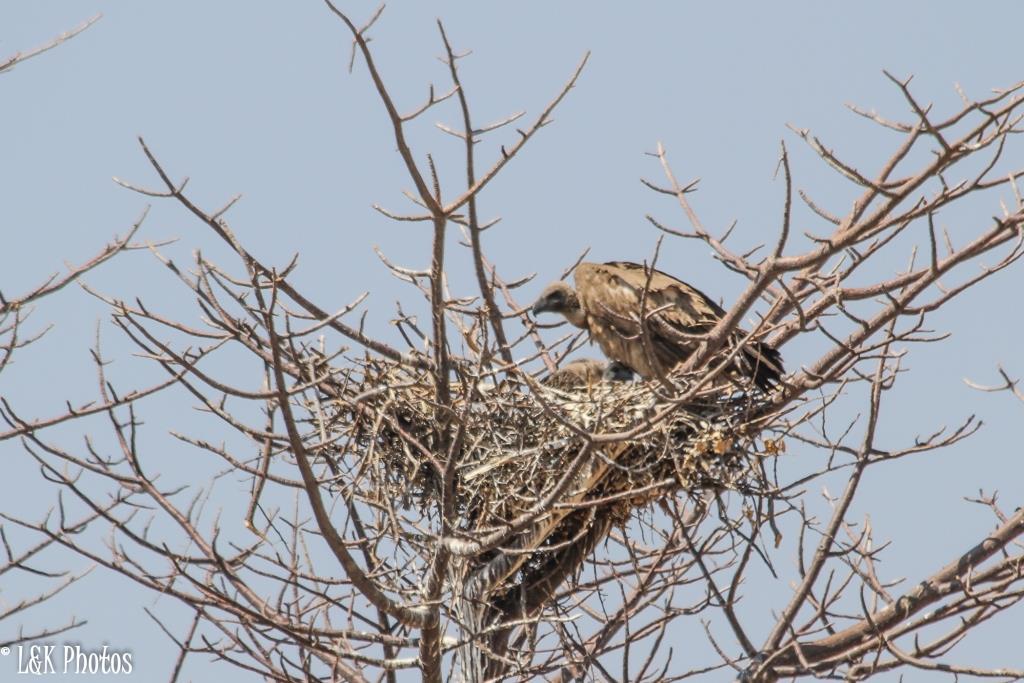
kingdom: Animalia
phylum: Chordata
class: Aves
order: Accipitriformes
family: Accipitridae
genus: Gyps
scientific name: Gyps africanus
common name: White-backed vulture
